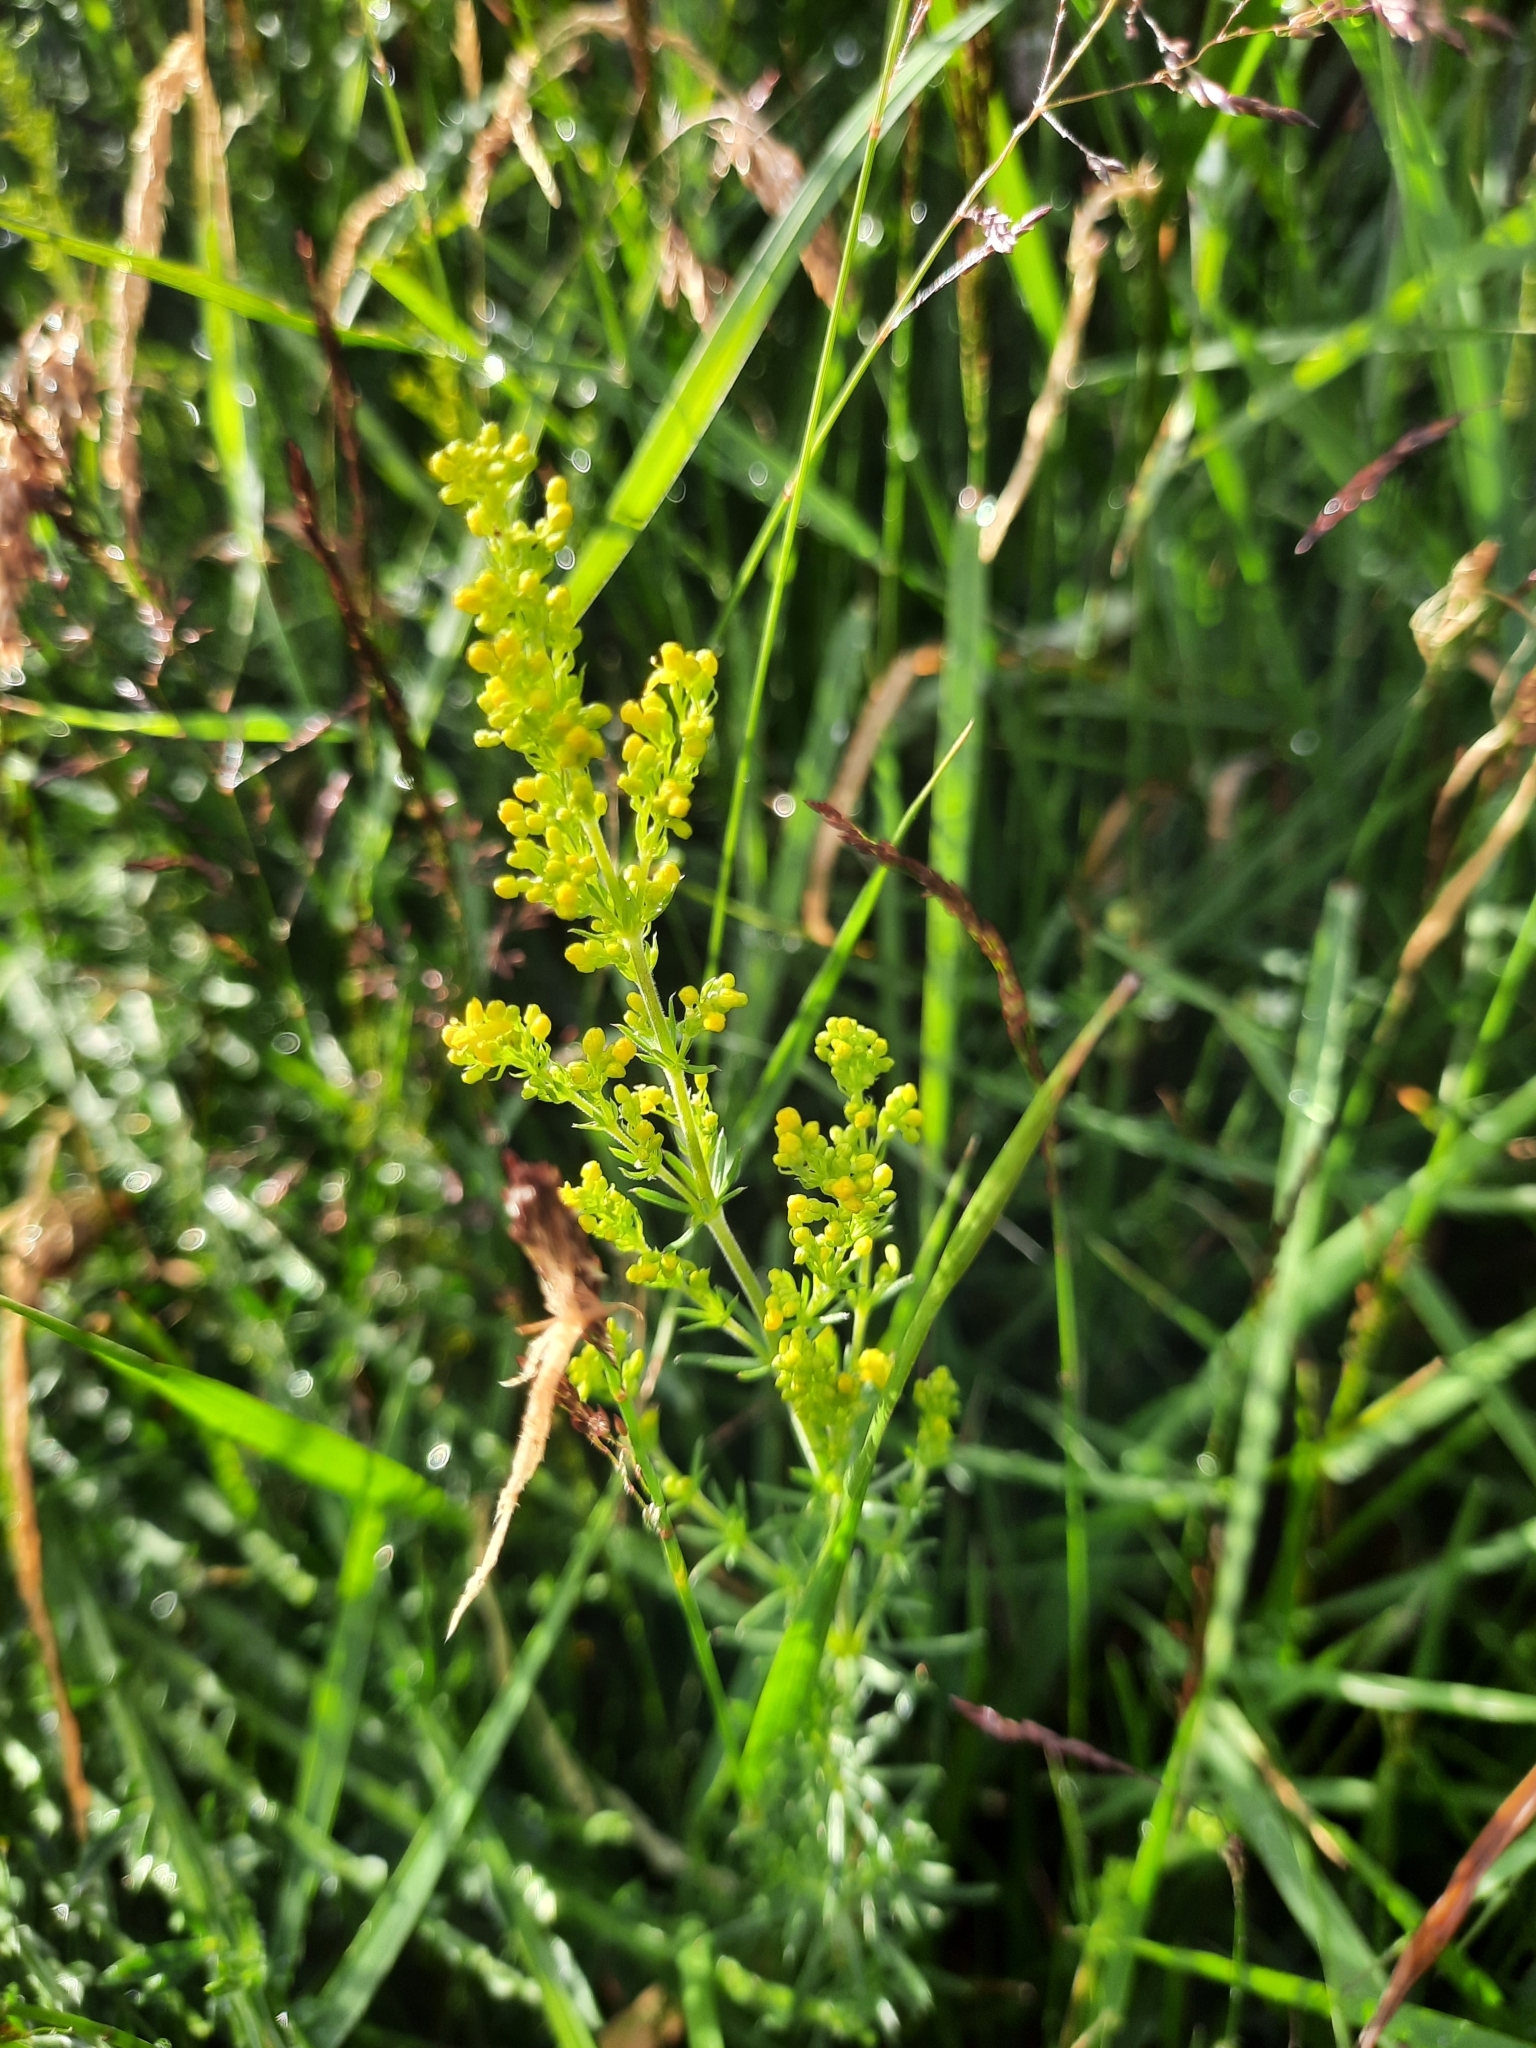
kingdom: Plantae
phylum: Tracheophyta
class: Magnoliopsida
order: Gentianales
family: Rubiaceae
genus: Galium
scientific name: Galium verum
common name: Lady's bedstraw
